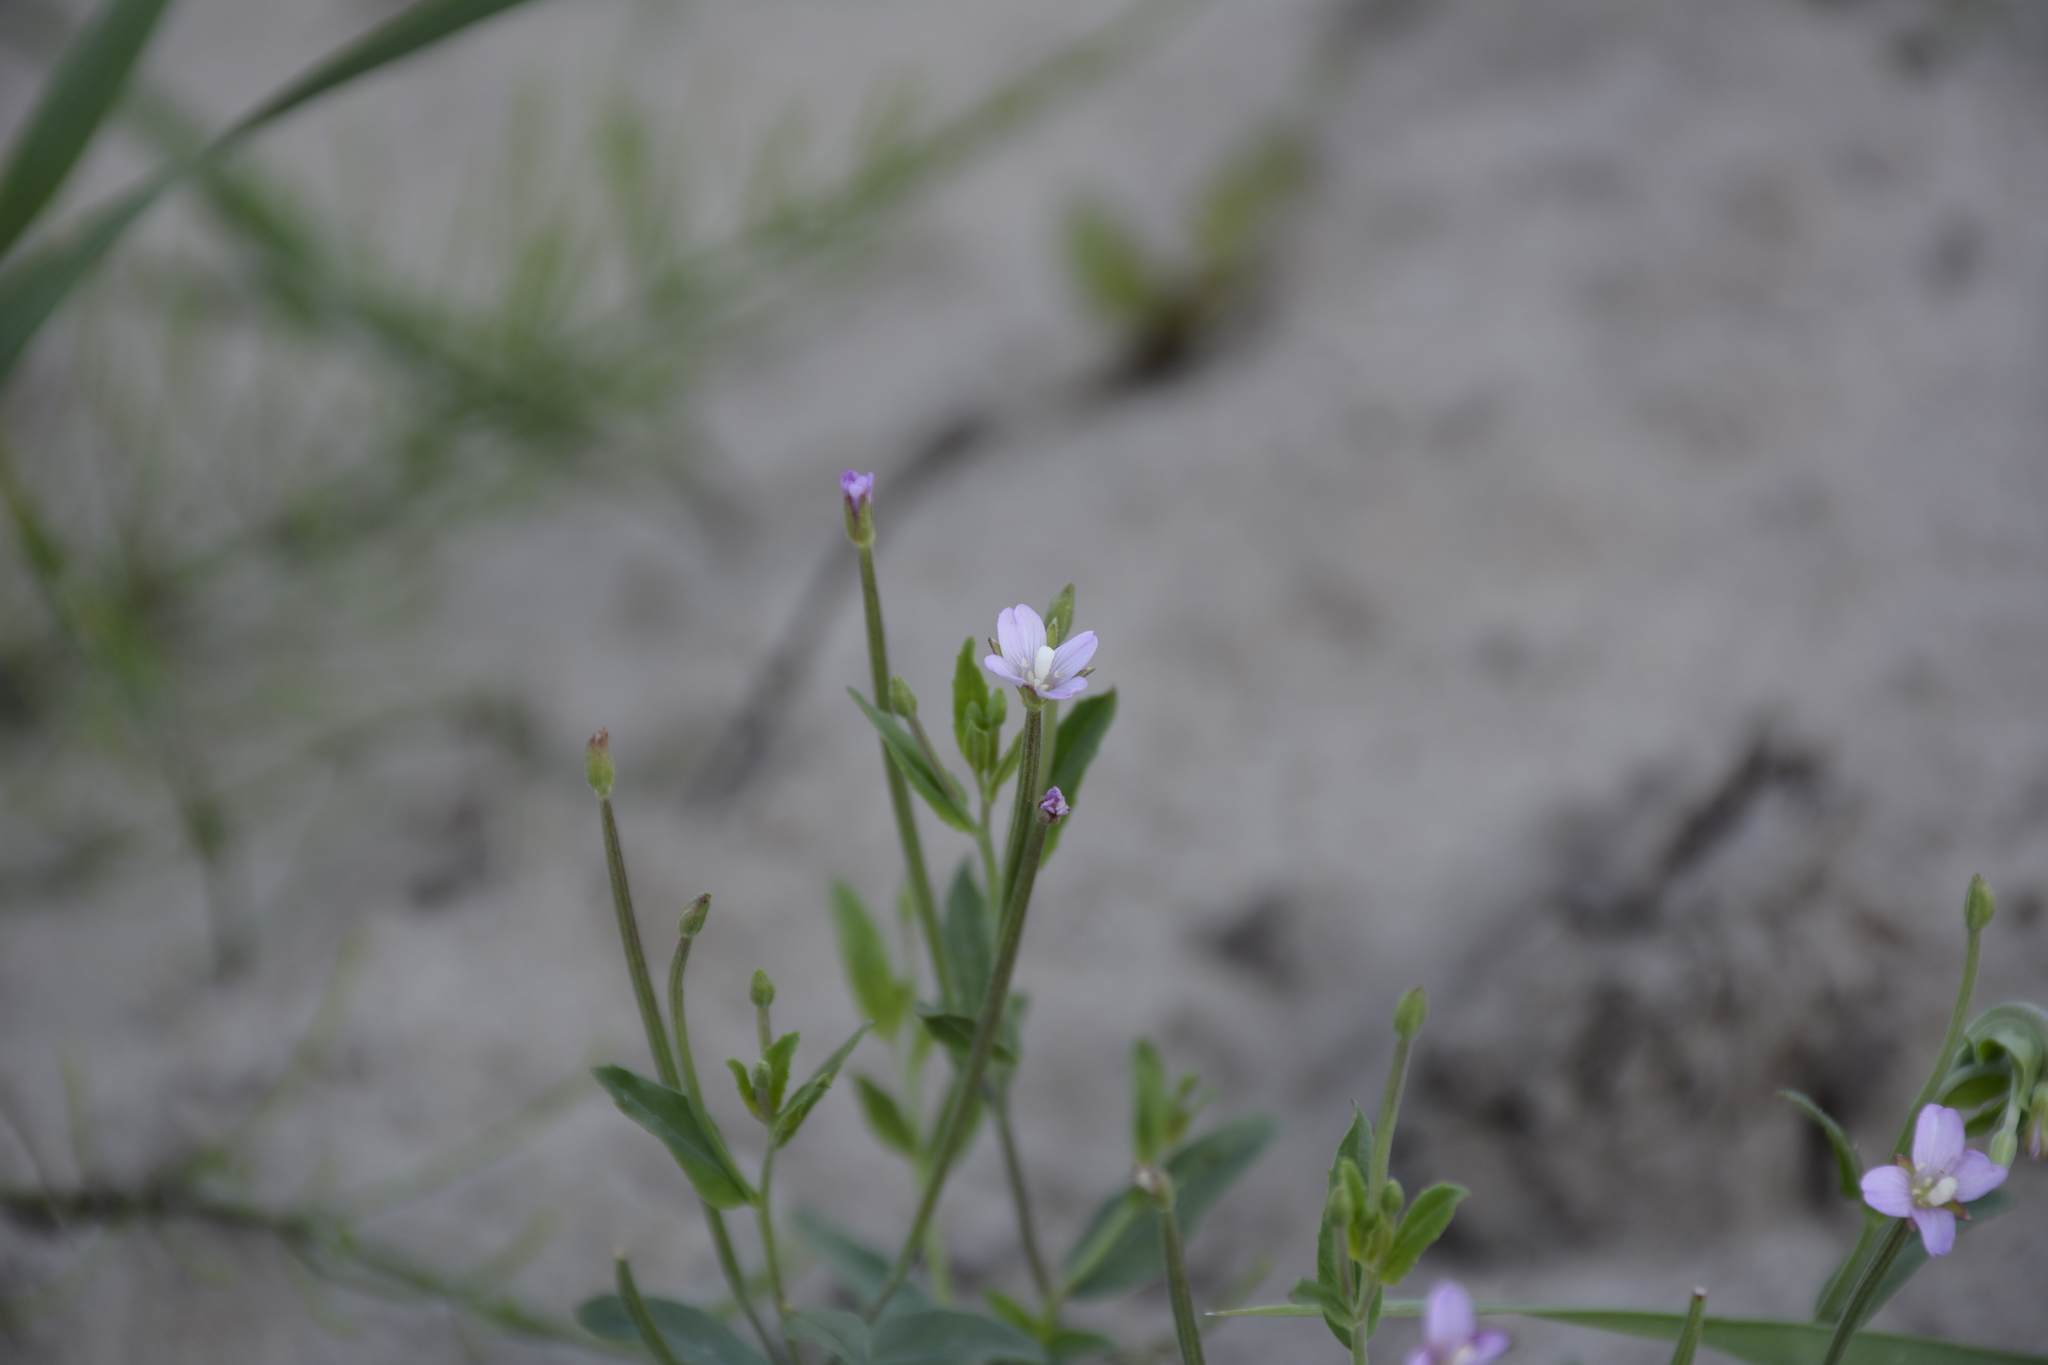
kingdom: Plantae
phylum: Tracheophyta
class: Magnoliopsida
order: Myrtales
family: Onagraceae
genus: Epilobium
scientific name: Epilobium ciliatum
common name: American willowherb
